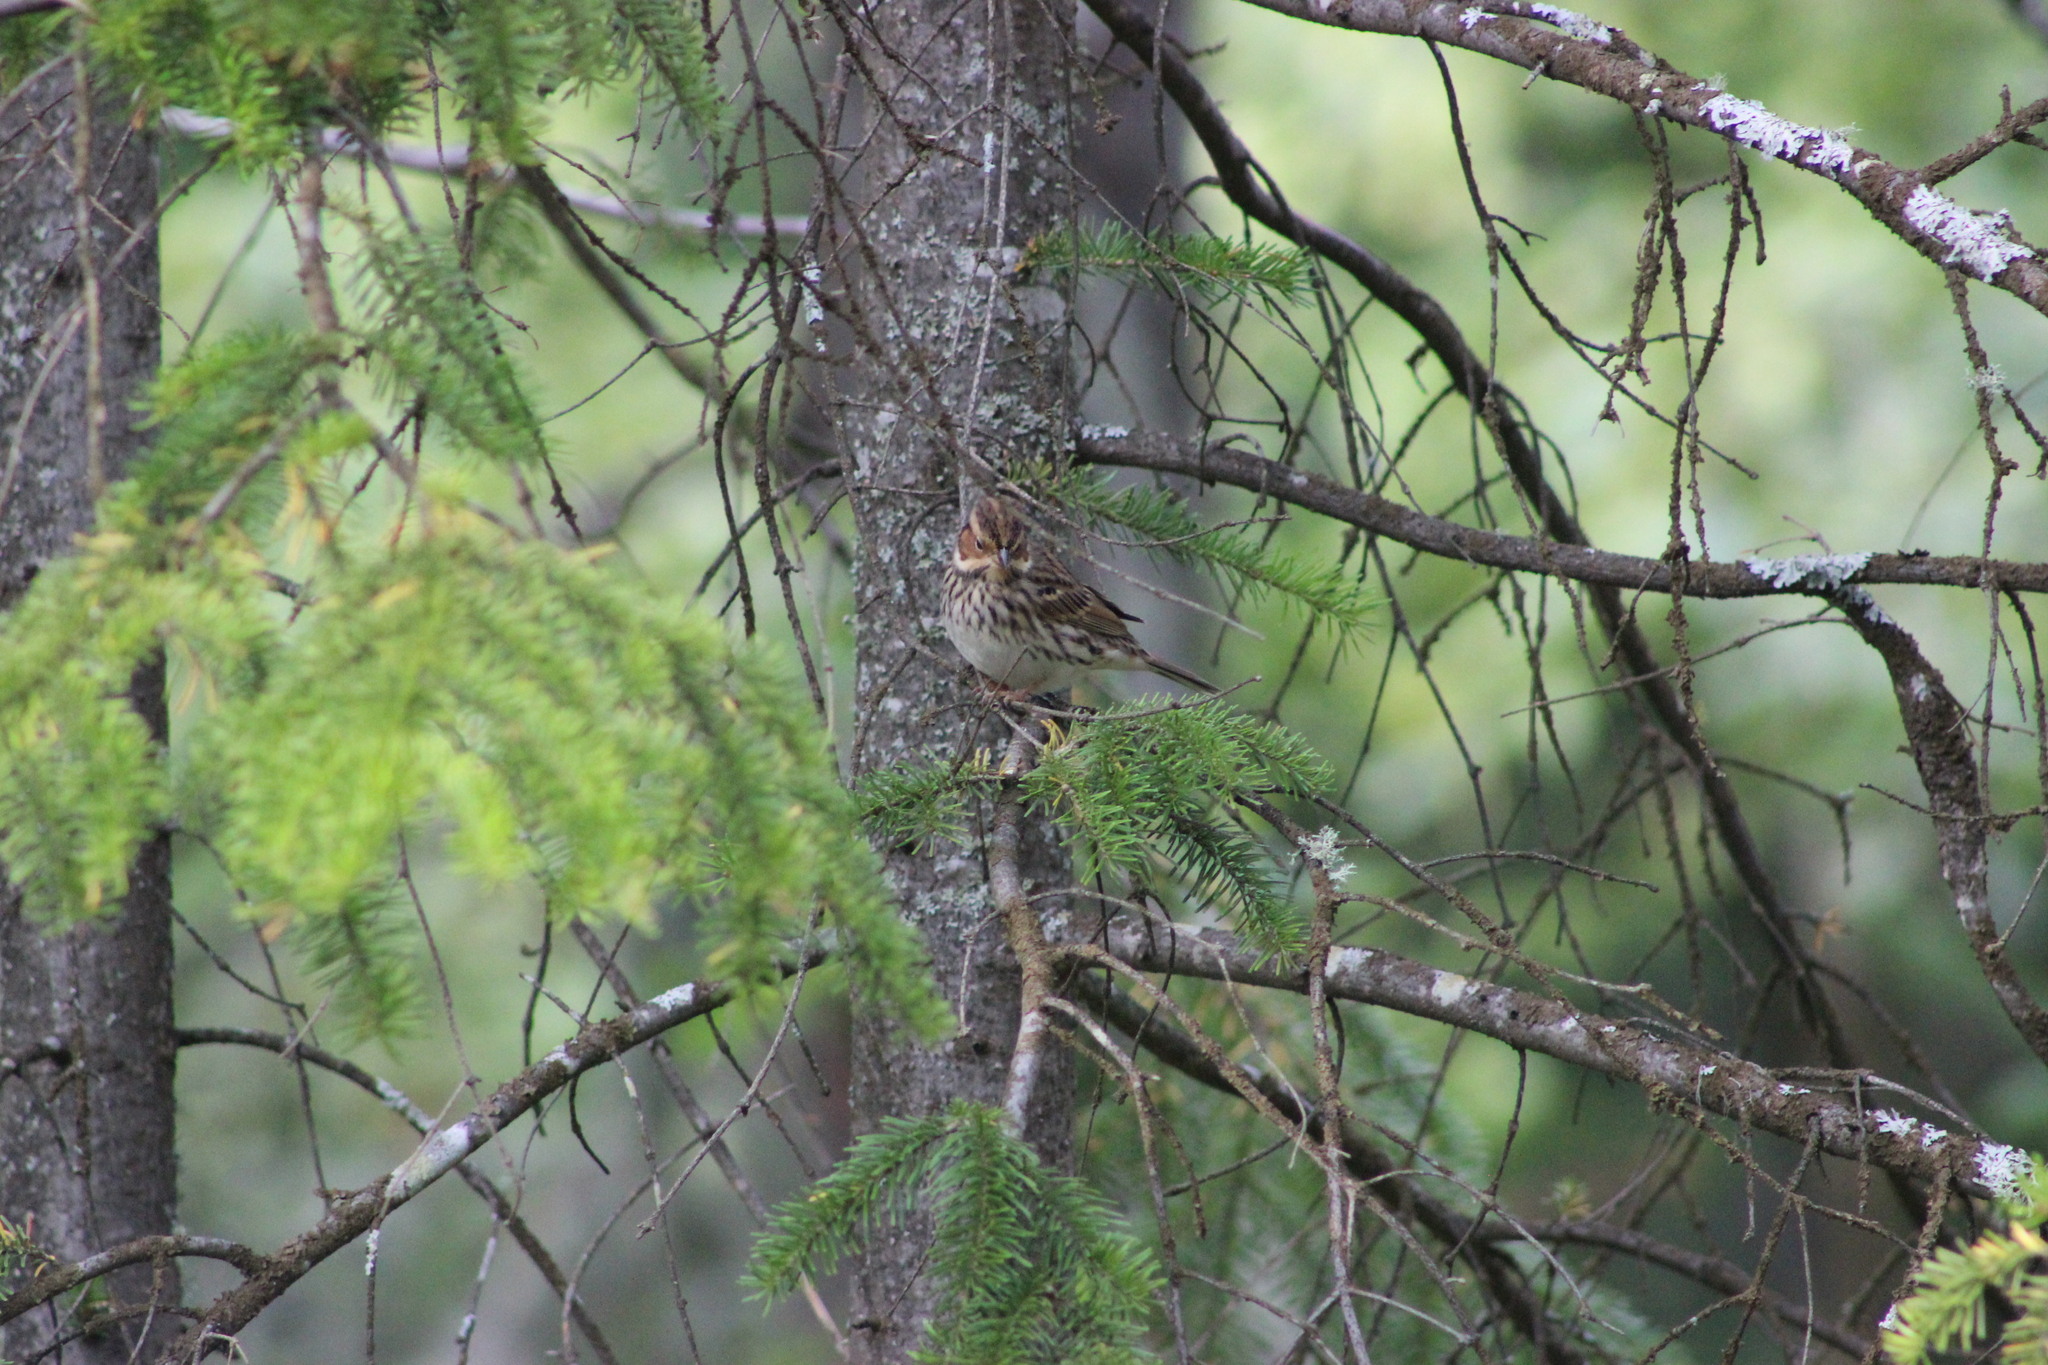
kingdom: Animalia
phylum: Chordata
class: Aves
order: Passeriformes
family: Emberizidae
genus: Emberiza
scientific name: Emberiza pusilla
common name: Little bunting
